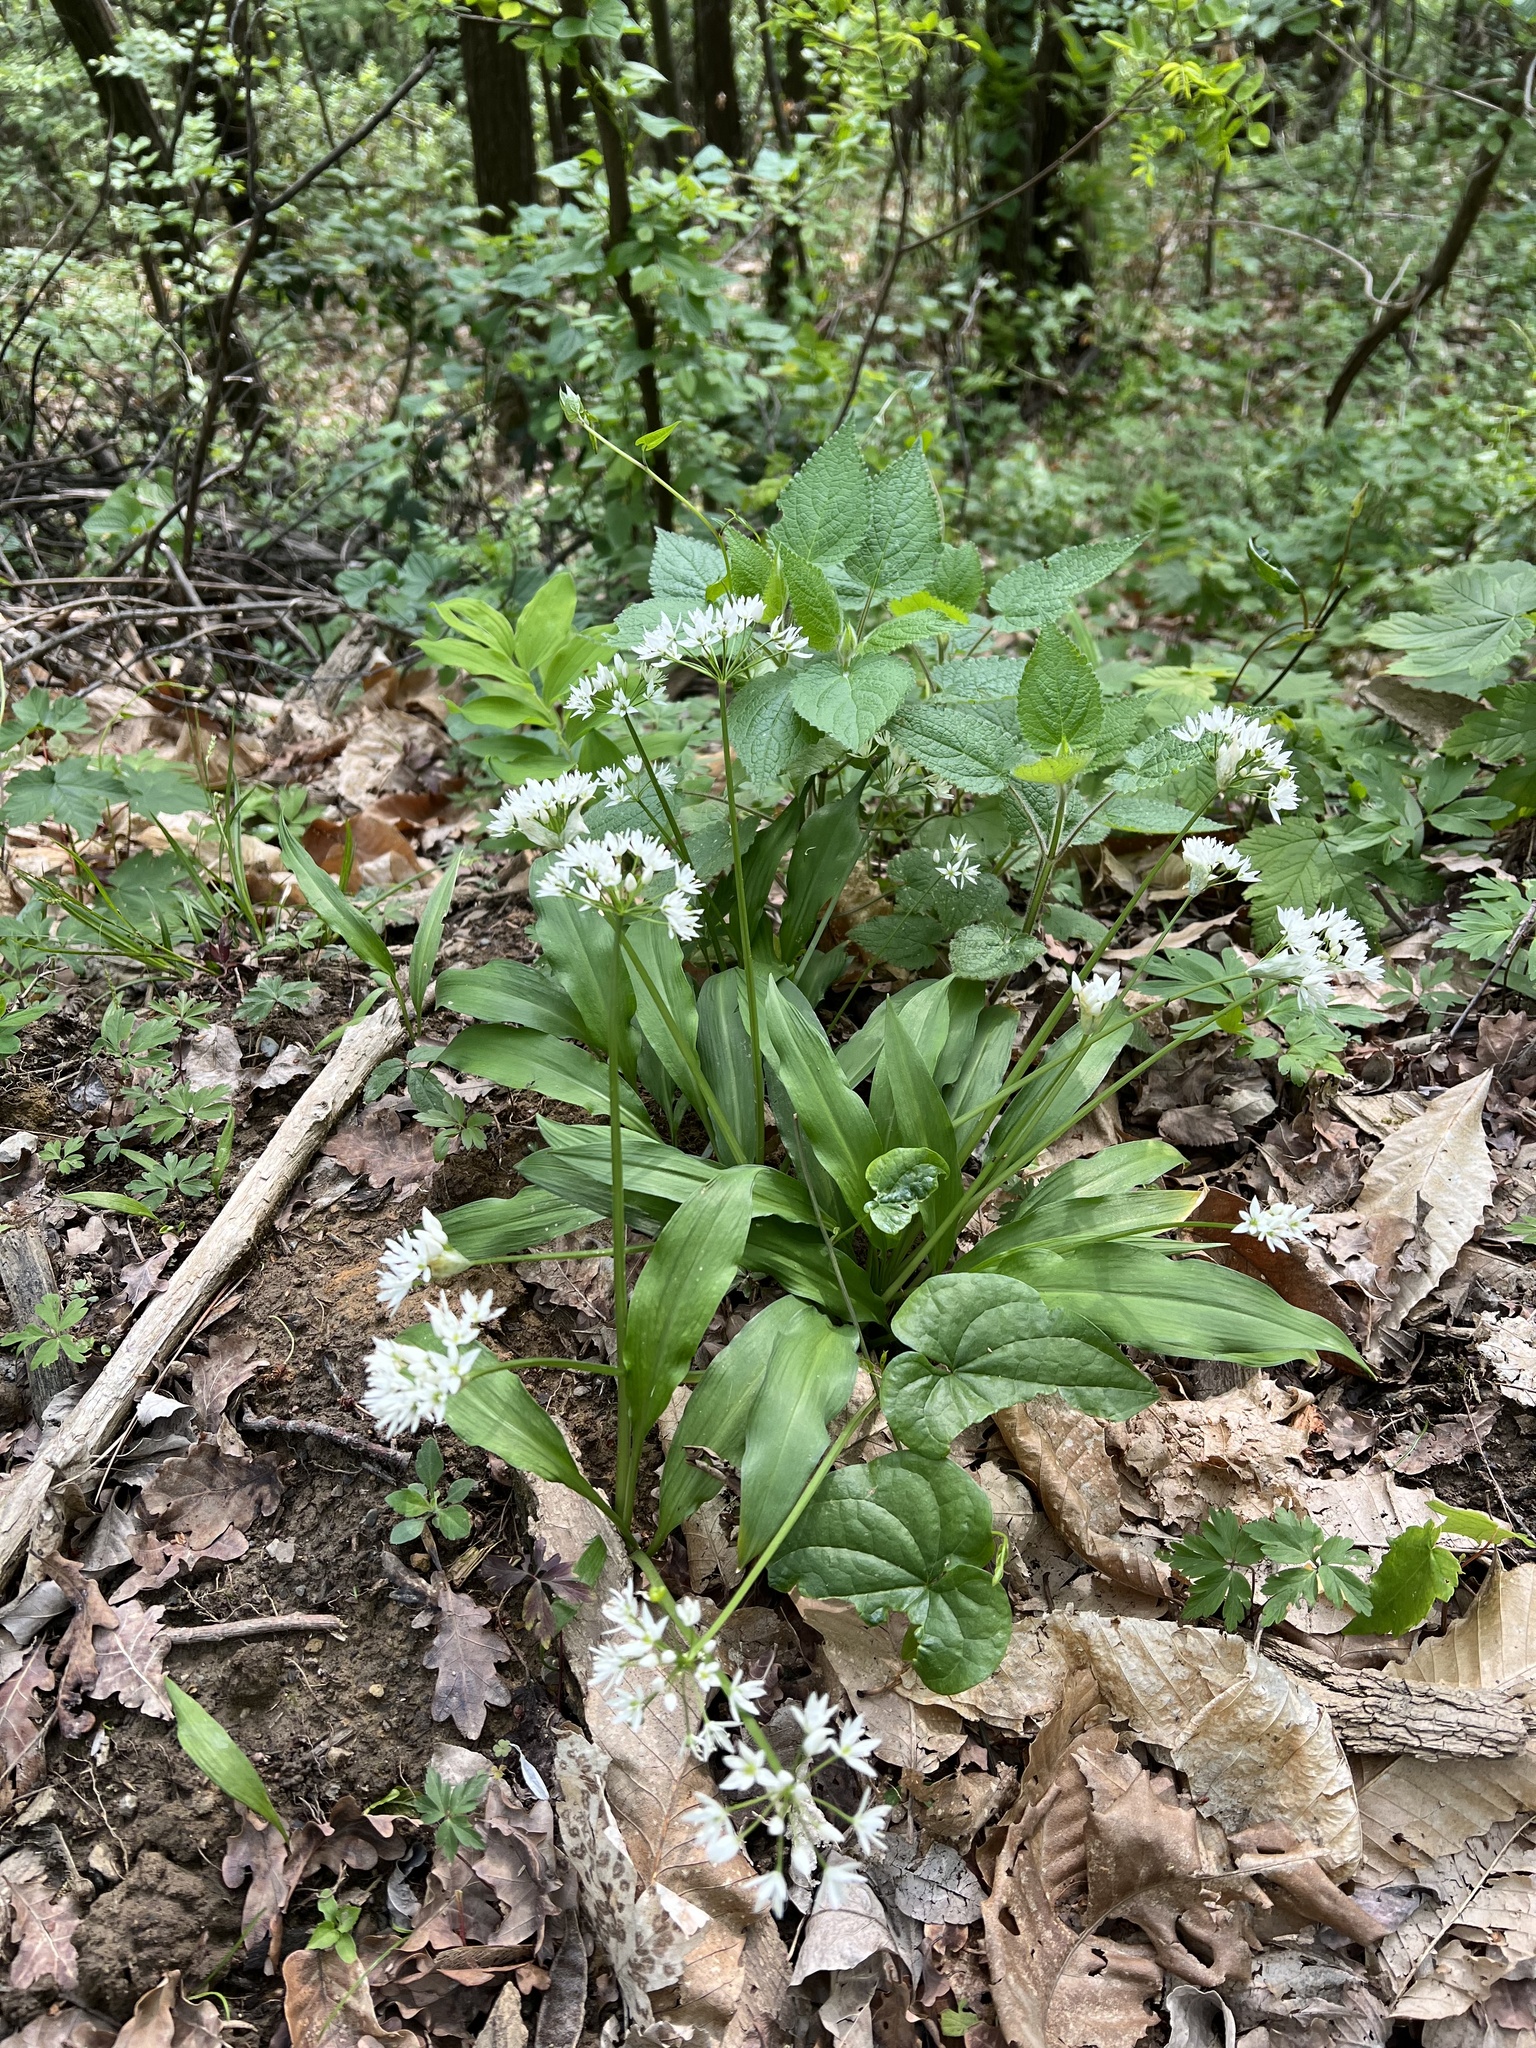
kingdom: Plantae
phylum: Tracheophyta
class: Liliopsida
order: Asparagales
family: Amaryllidaceae
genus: Allium
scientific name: Allium ursinum
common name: Ramsons
